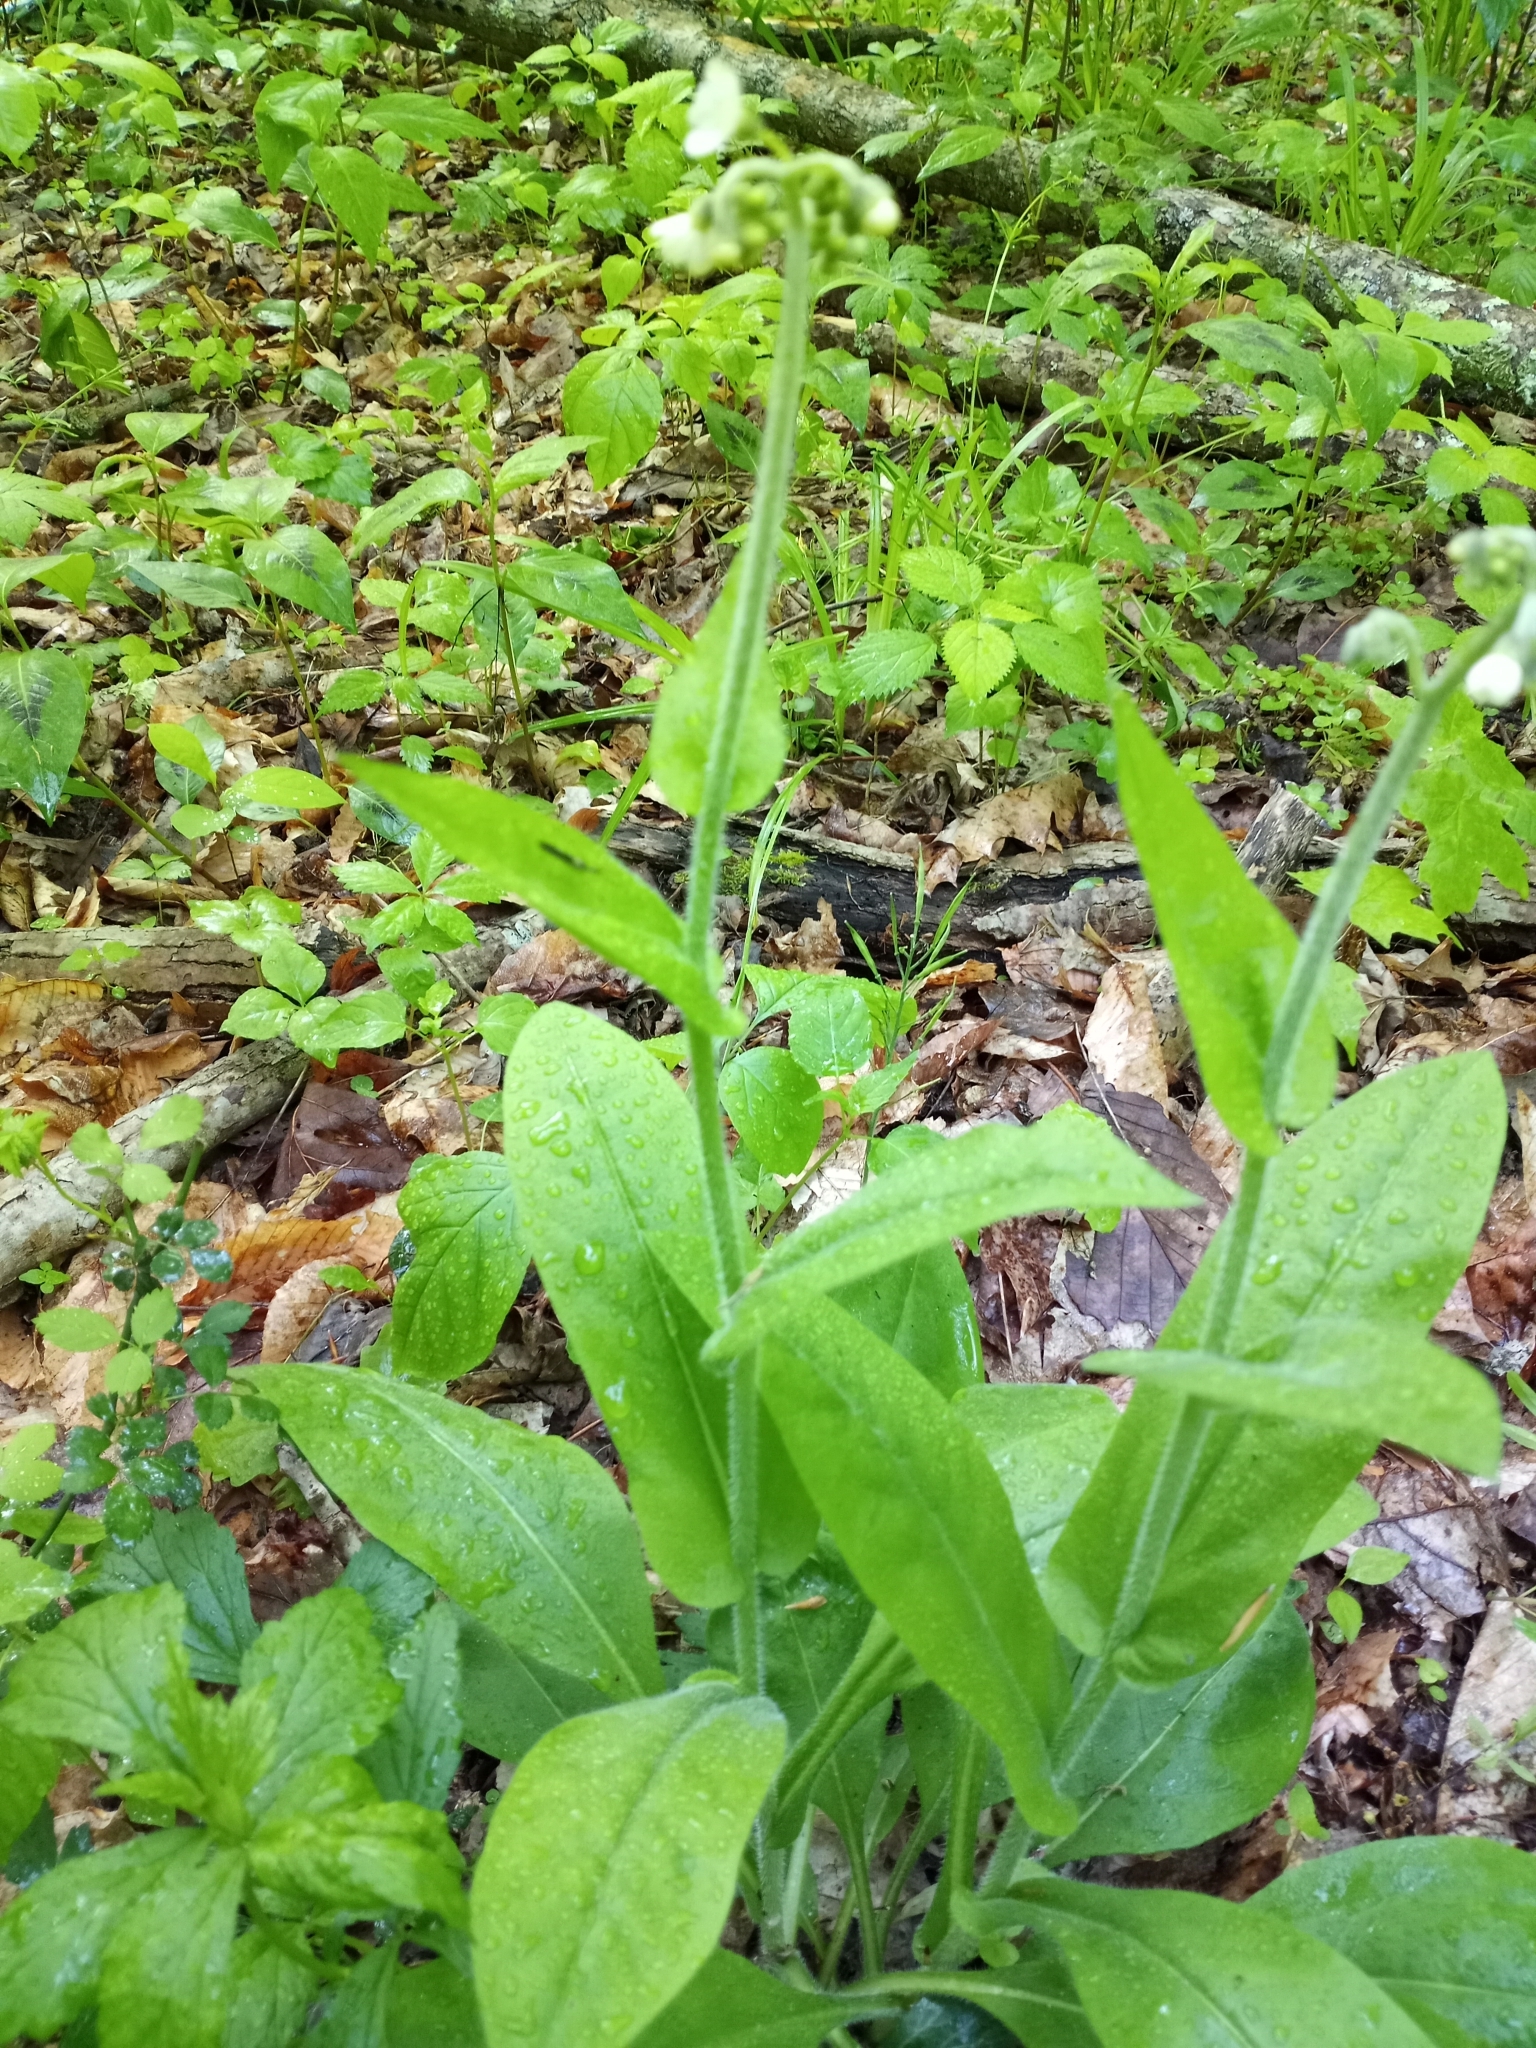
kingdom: Plantae
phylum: Tracheophyta
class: Magnoliopsida
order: Boraginales
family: Boraginaceae
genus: Andersonglossum
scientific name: Andersonglossum virginianum
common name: Wild comfrey
